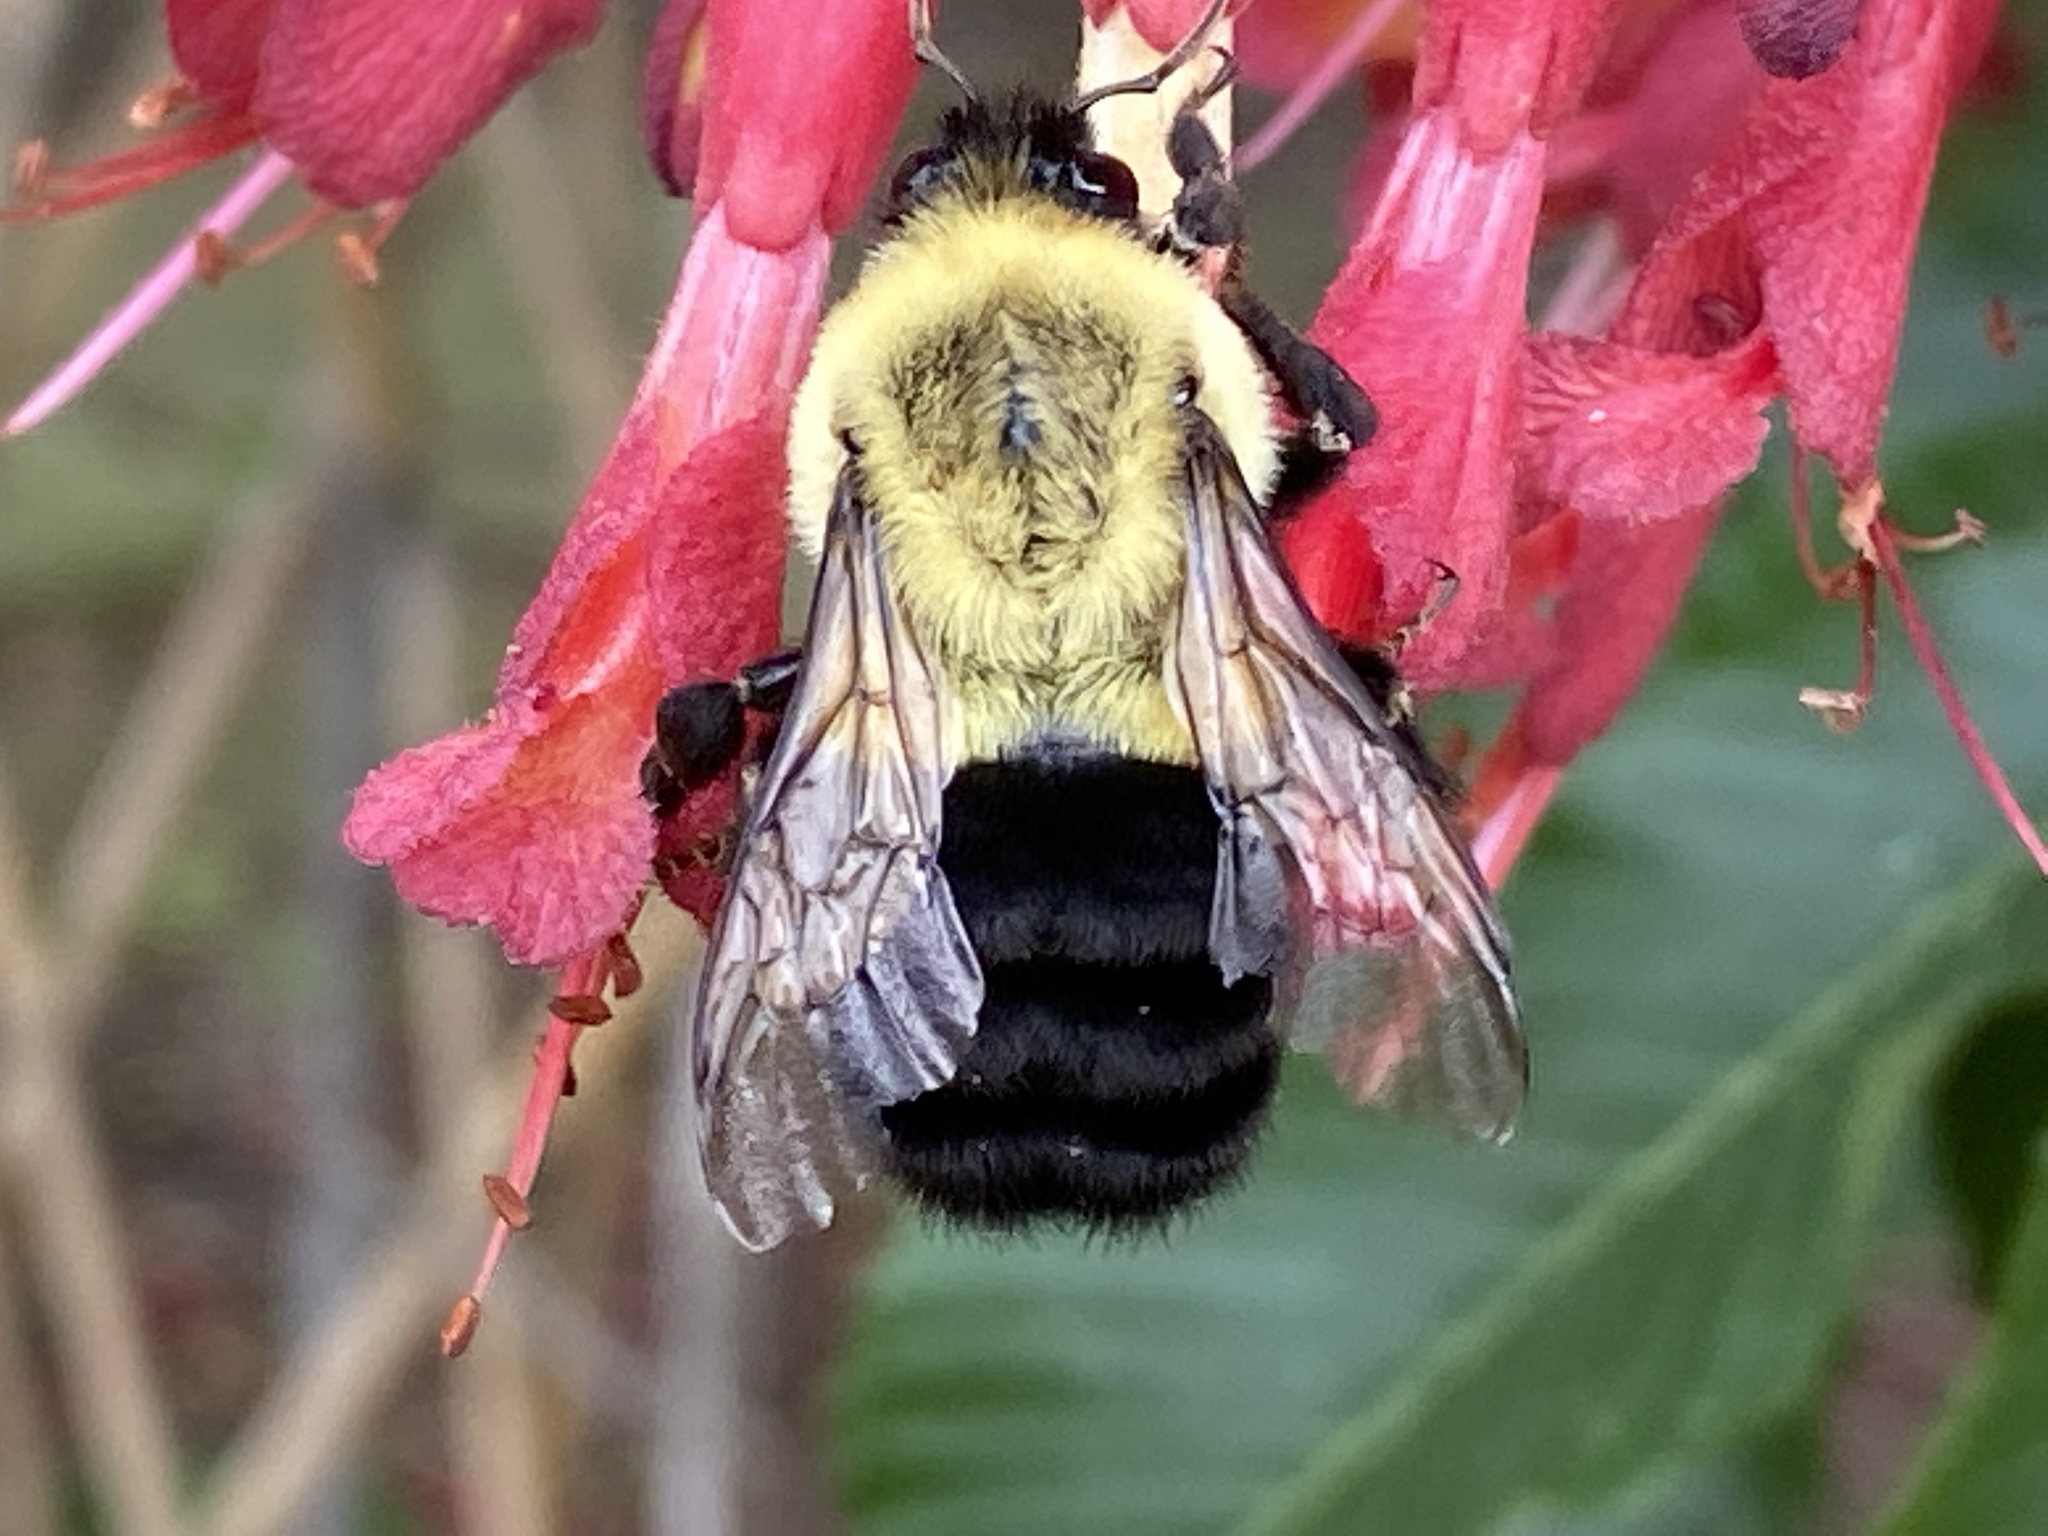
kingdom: Animalia
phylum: Arthropoda
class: Insecta
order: Hymenoptera
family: Apidae
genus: Bombus
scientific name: Bombus impatiens
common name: Common eastern bumble bee
